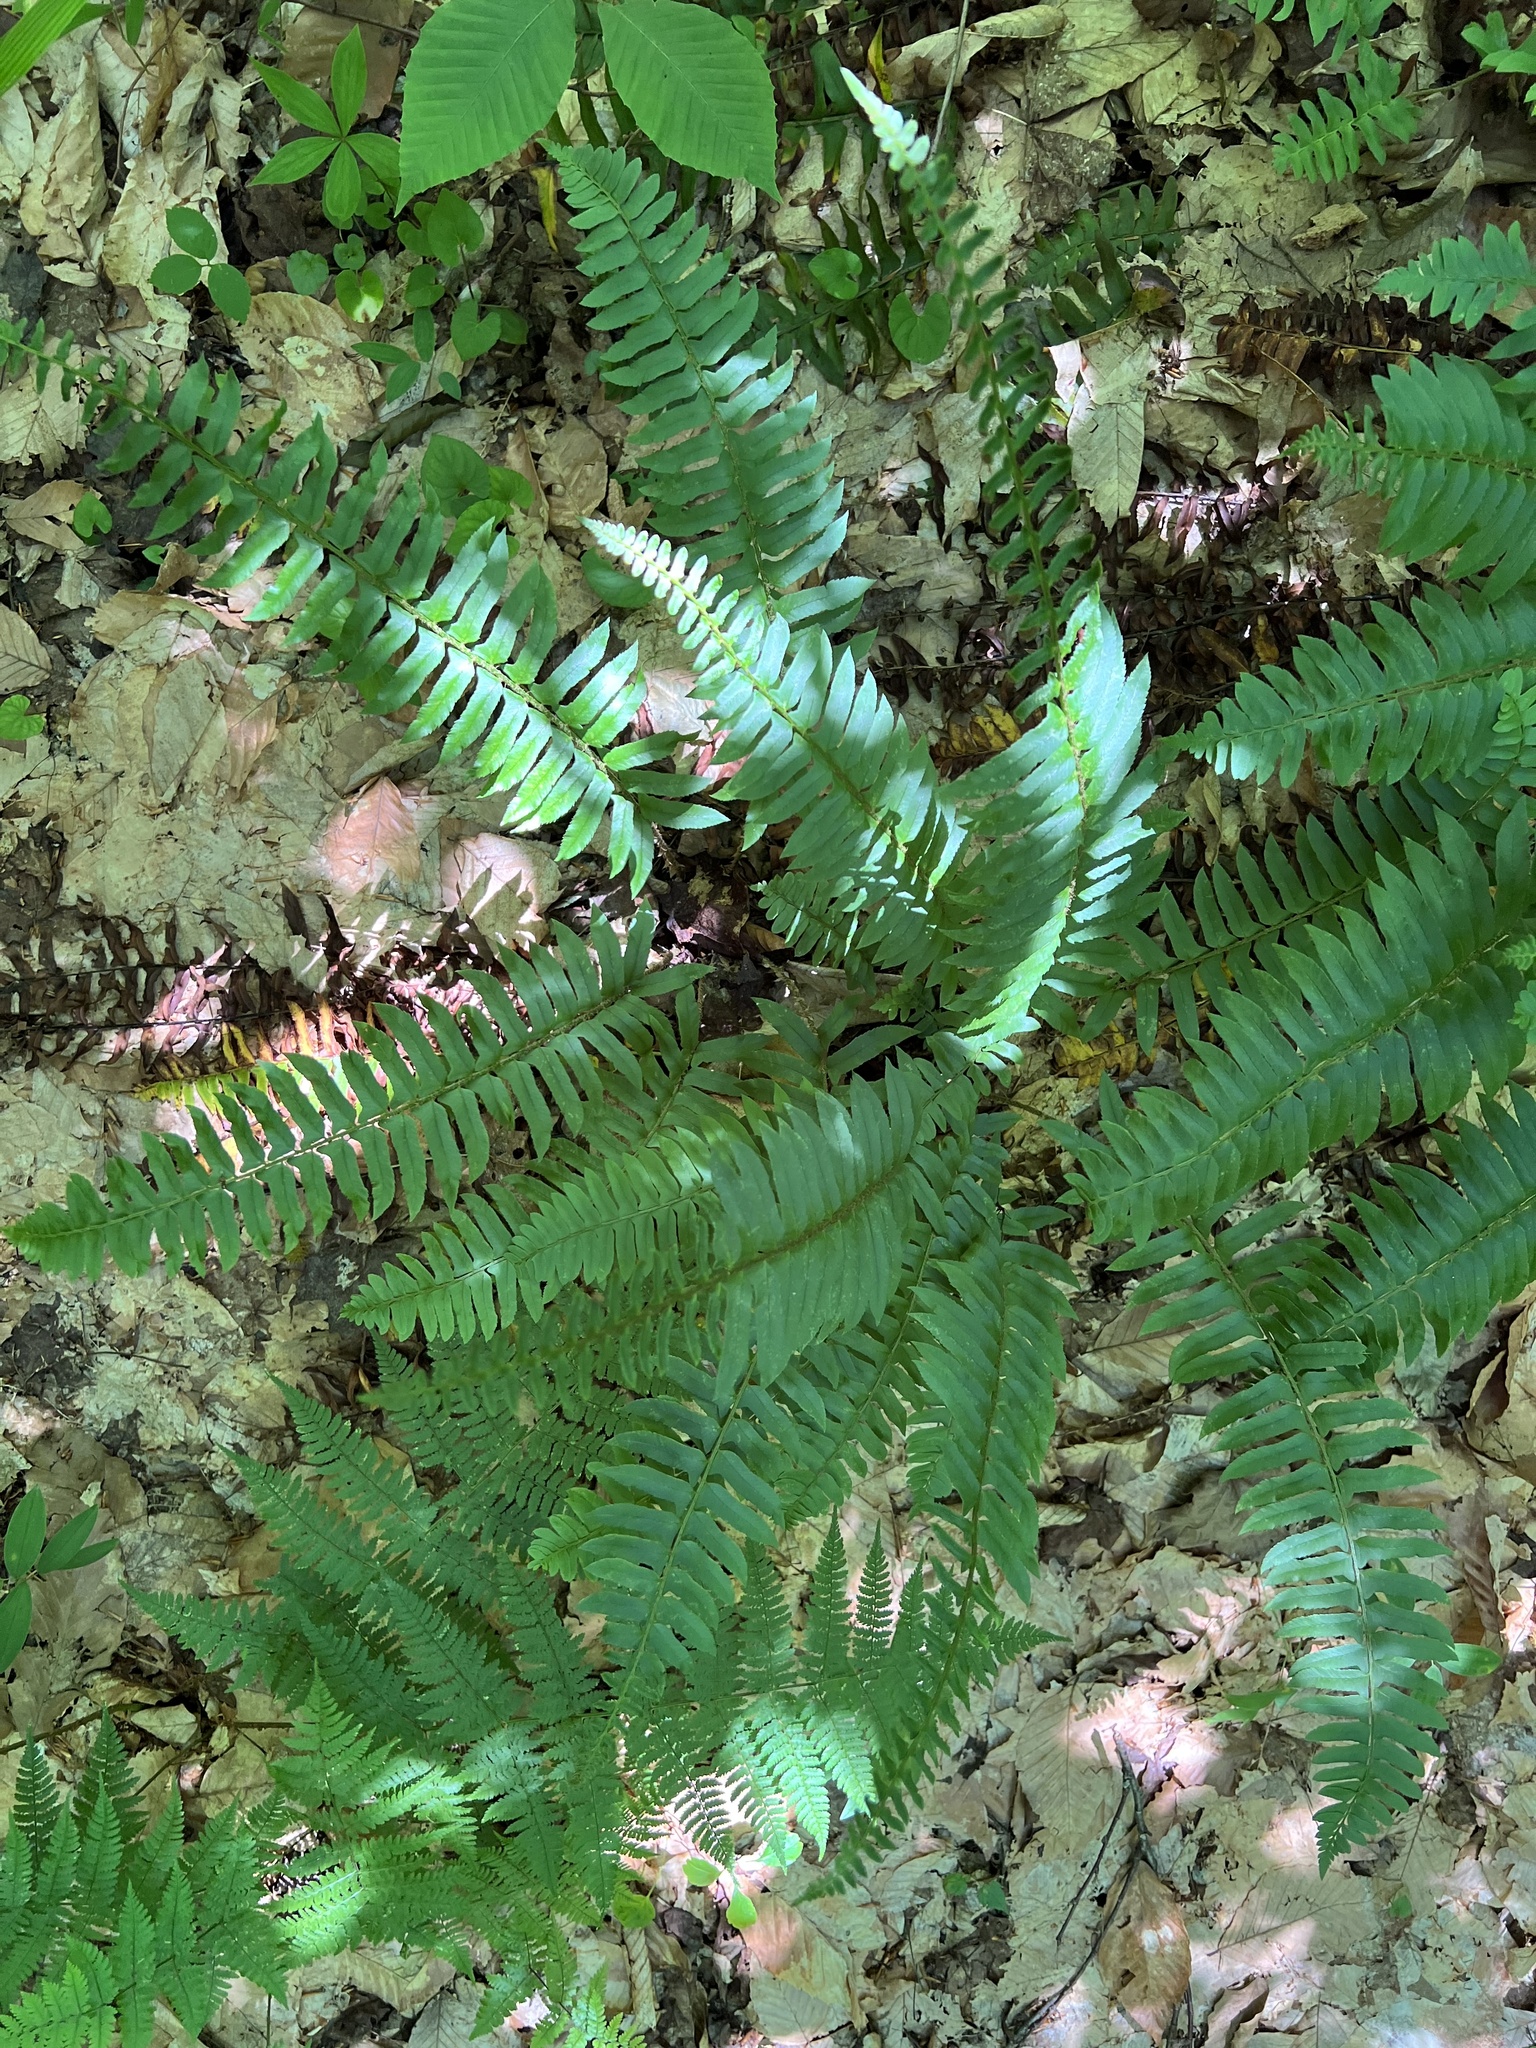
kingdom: Plantae
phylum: Tracheophyta
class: Polypodiopsida
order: Polypodiales
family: Dryopteridaceae
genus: Polystichum
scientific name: Polystichum acrostichoides
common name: Christmas fern
